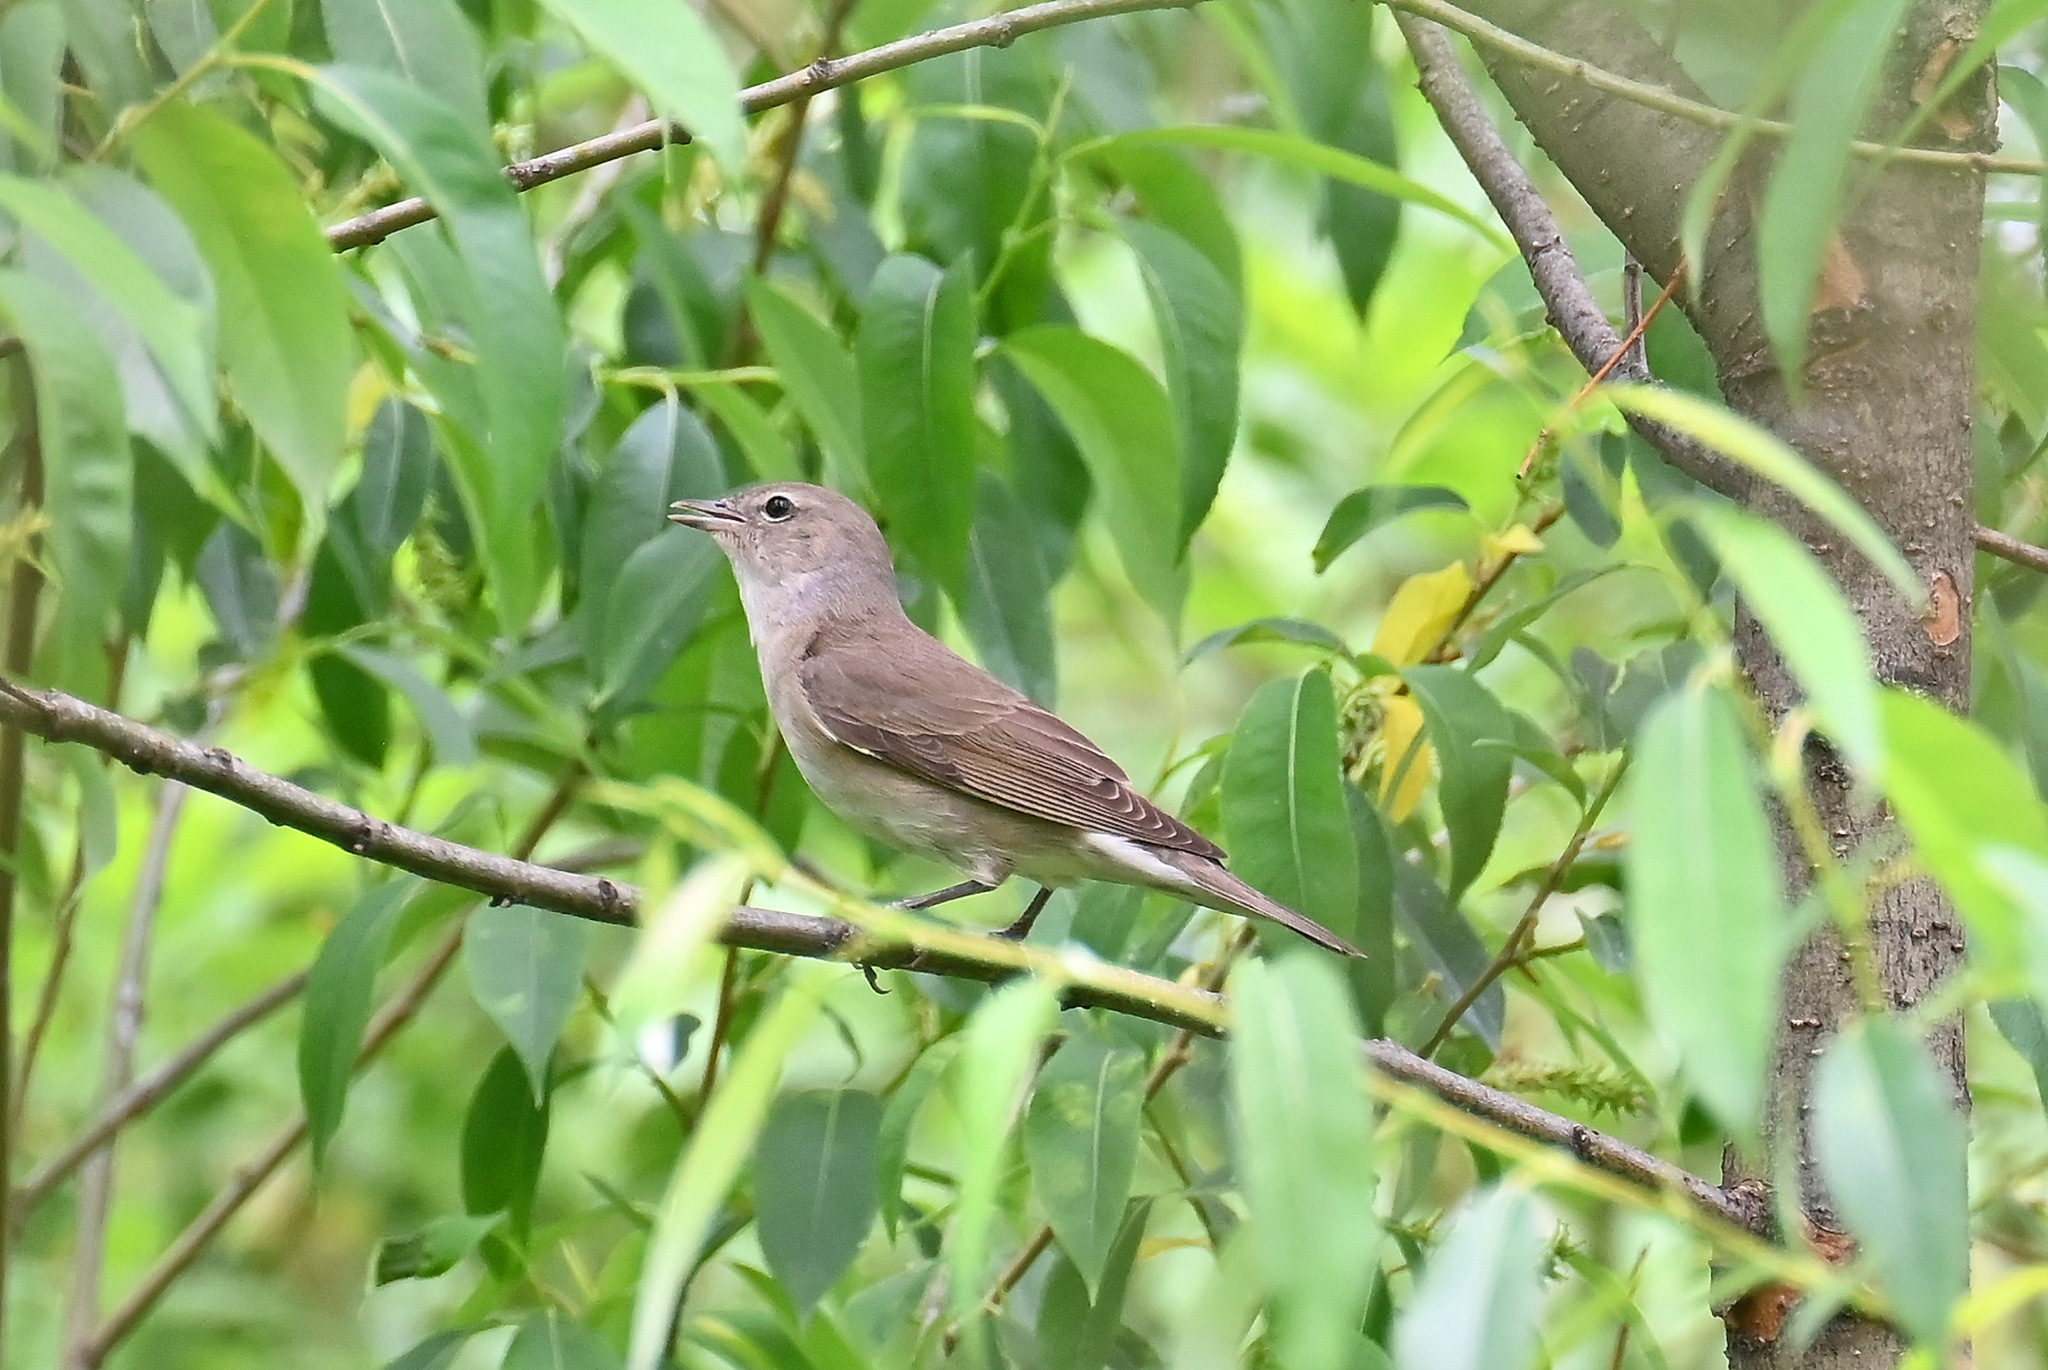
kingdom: Animalia
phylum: Chordata
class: Aves
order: Passeriformes
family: Sylviidae
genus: Sylvia
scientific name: Sylvia borin
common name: Garden warbler
